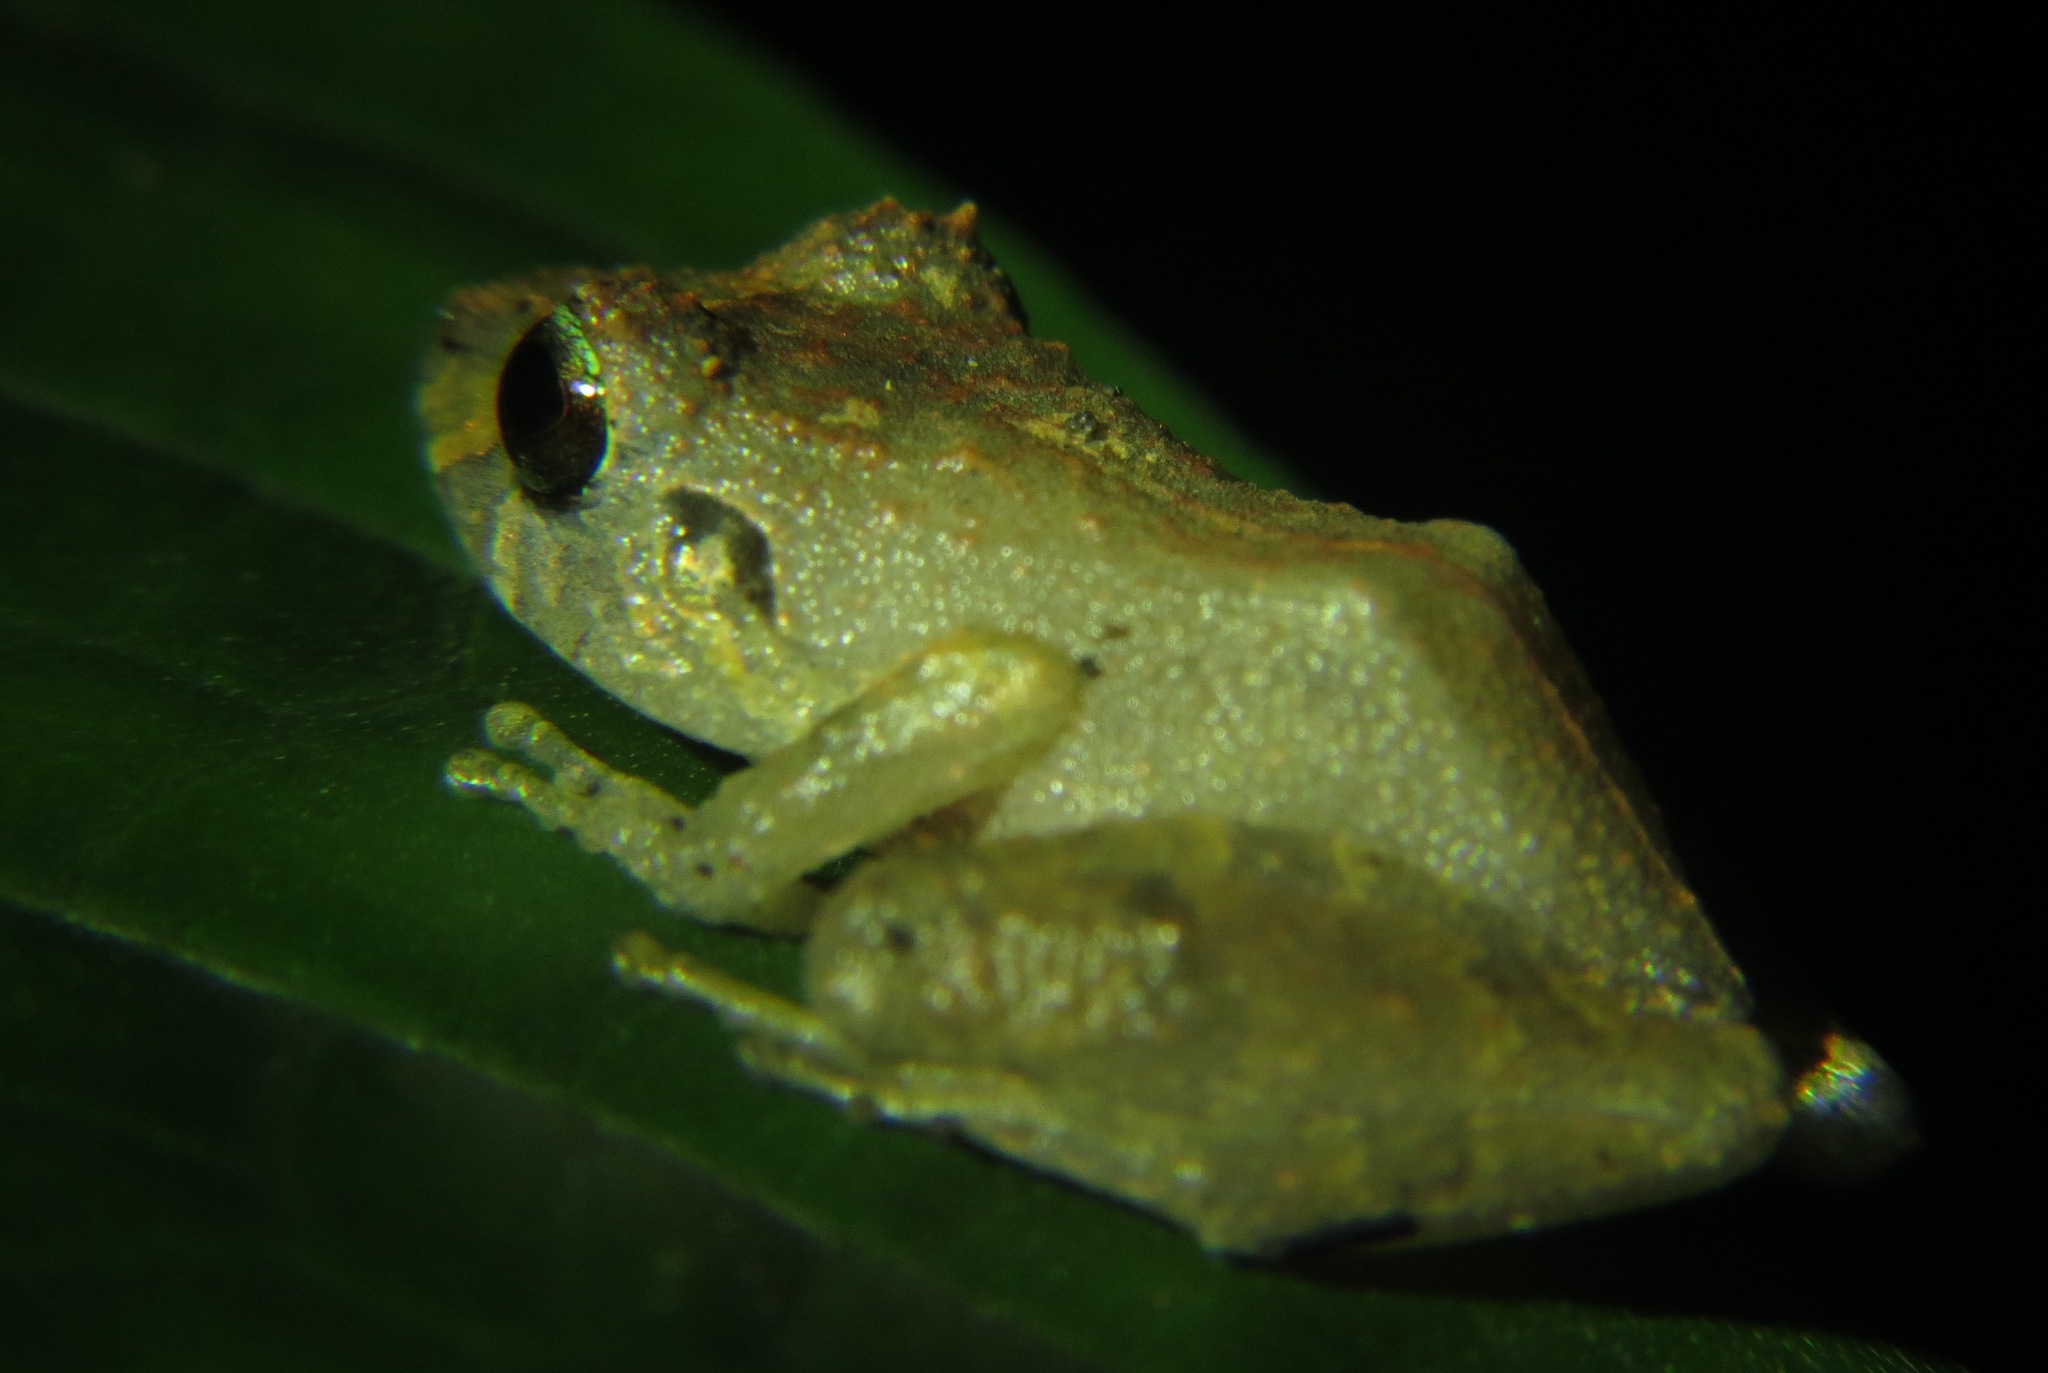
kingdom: Animalia
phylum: Chordata
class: Amphibia
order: Anura
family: Craugastoridae
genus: Pristimantis
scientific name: Pristimantis urichi
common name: Lesser antilles robber frog
